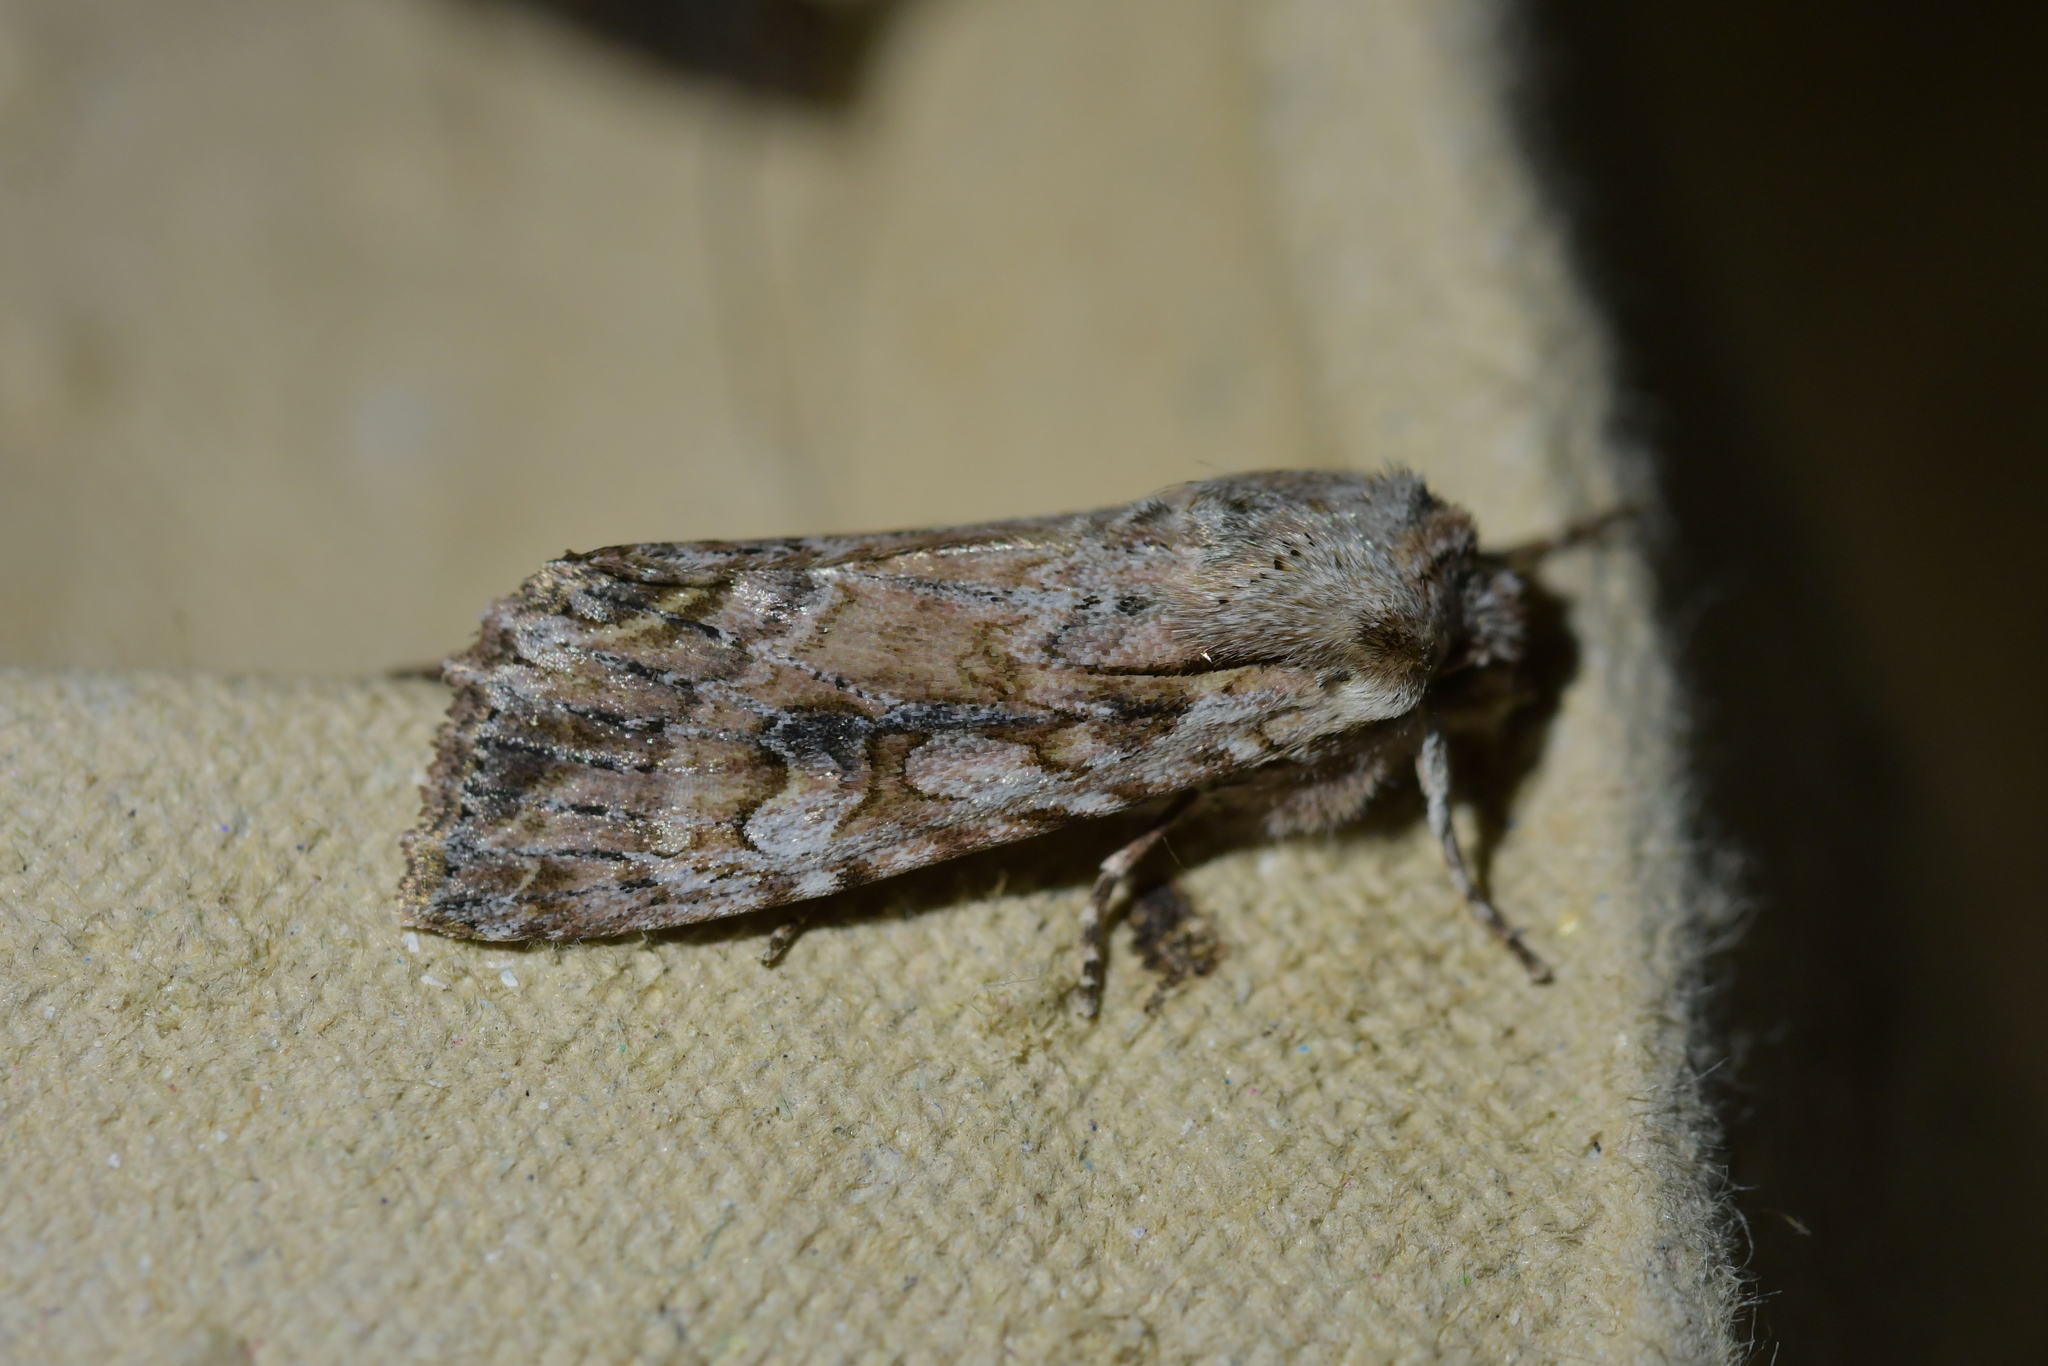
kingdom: Animalia
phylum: Arthropoda
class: Insecta
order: Lepidoptera
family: Noctuidae
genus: Ichneutica
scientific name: Ichneutica lindsayorum
